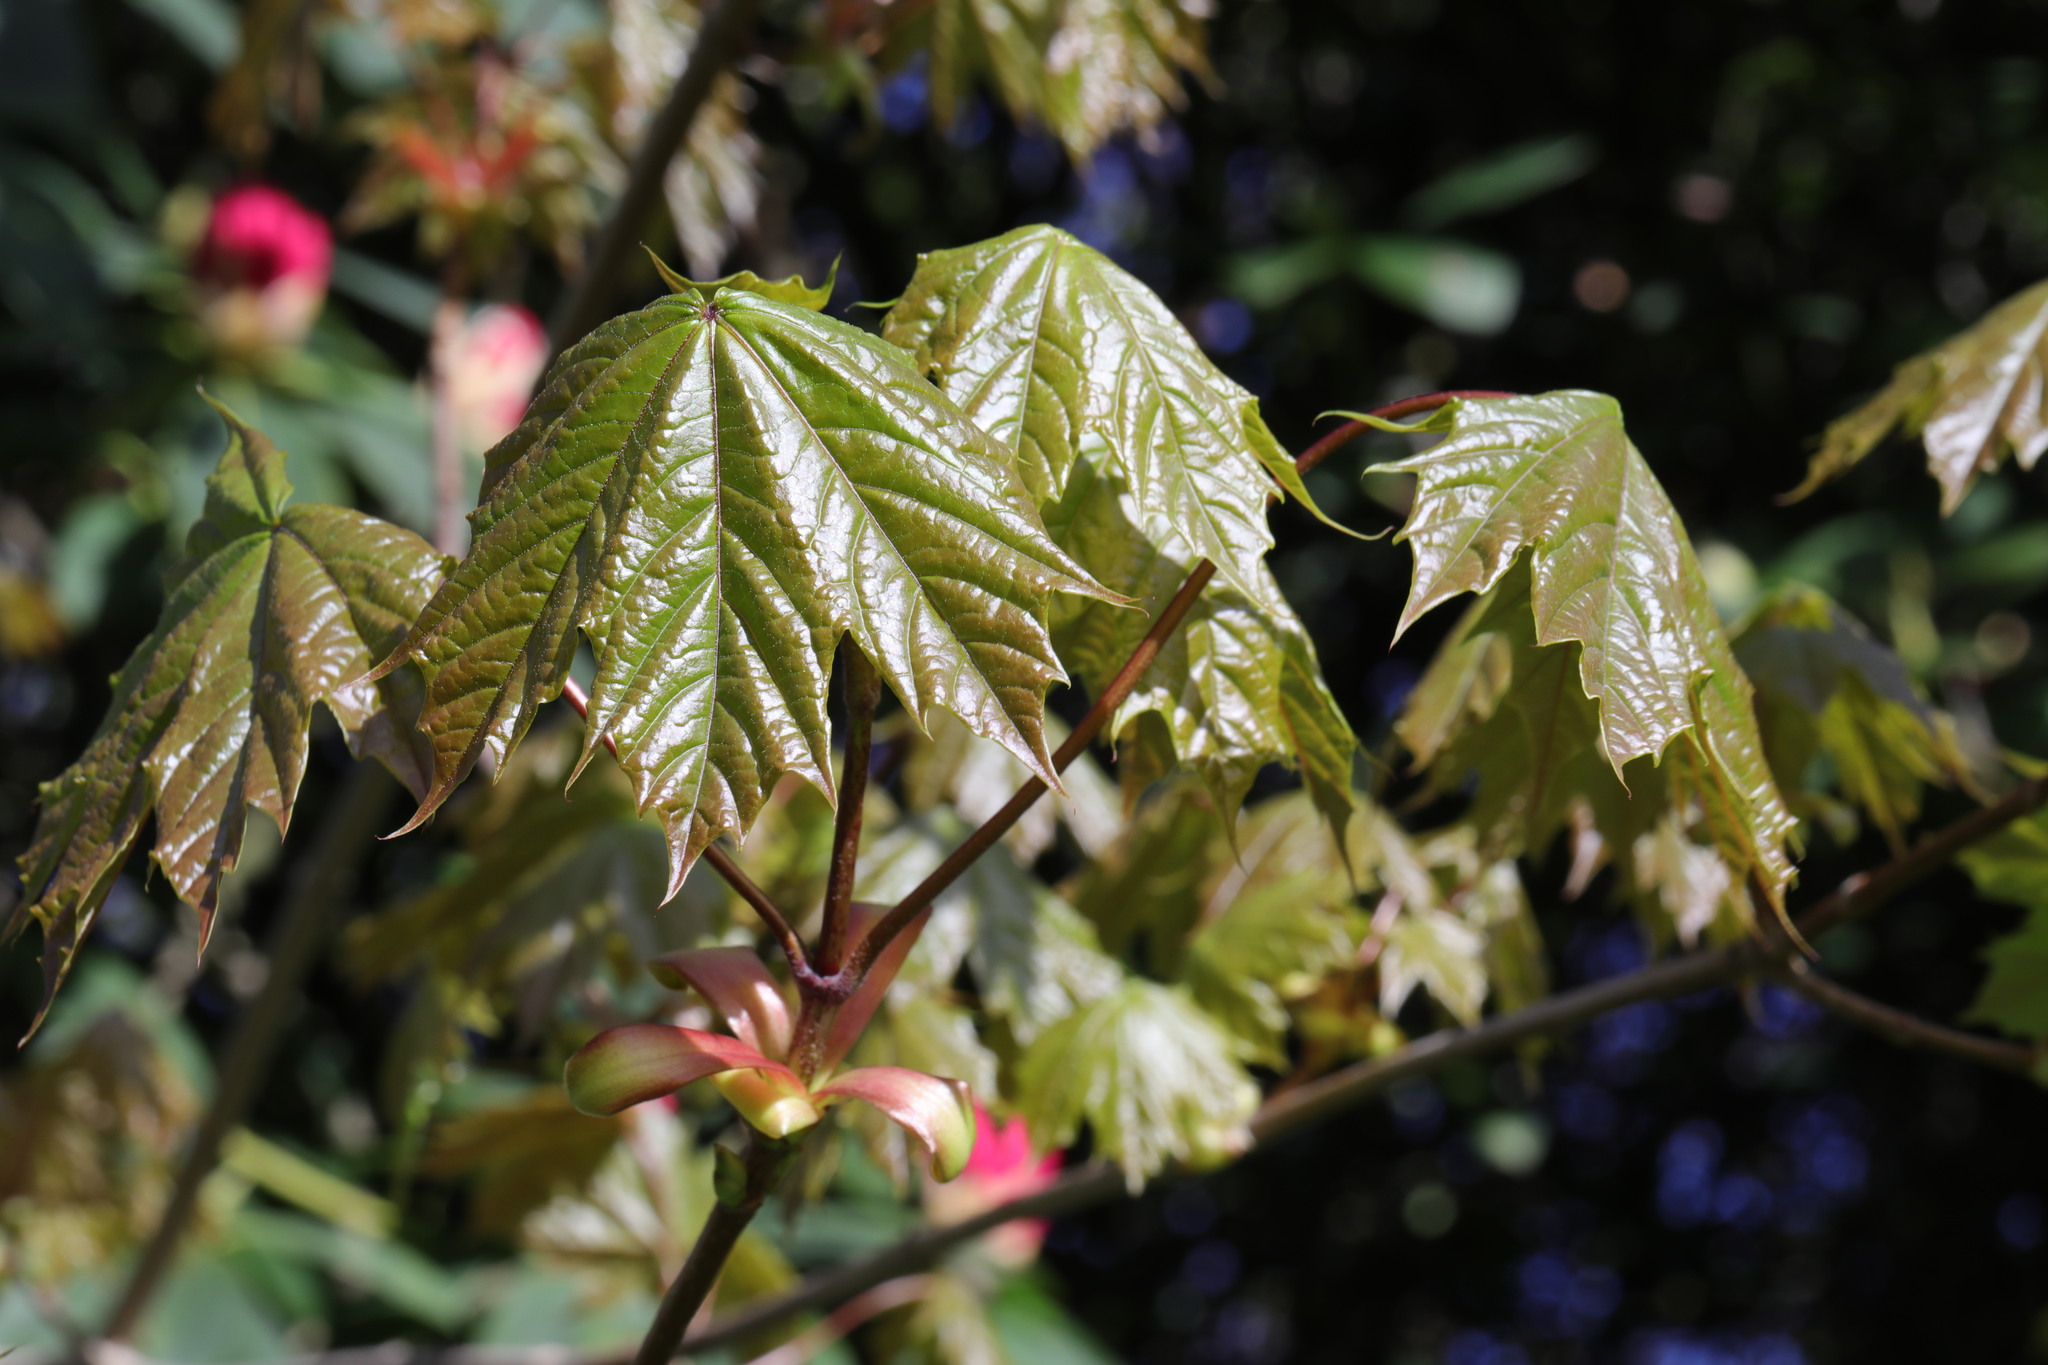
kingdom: Plantae
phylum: Tracheophyta
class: Magnoliopsida
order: Sapindales
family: Sapindaceae
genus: Acer
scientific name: Acer platanoides
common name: Norway maple
